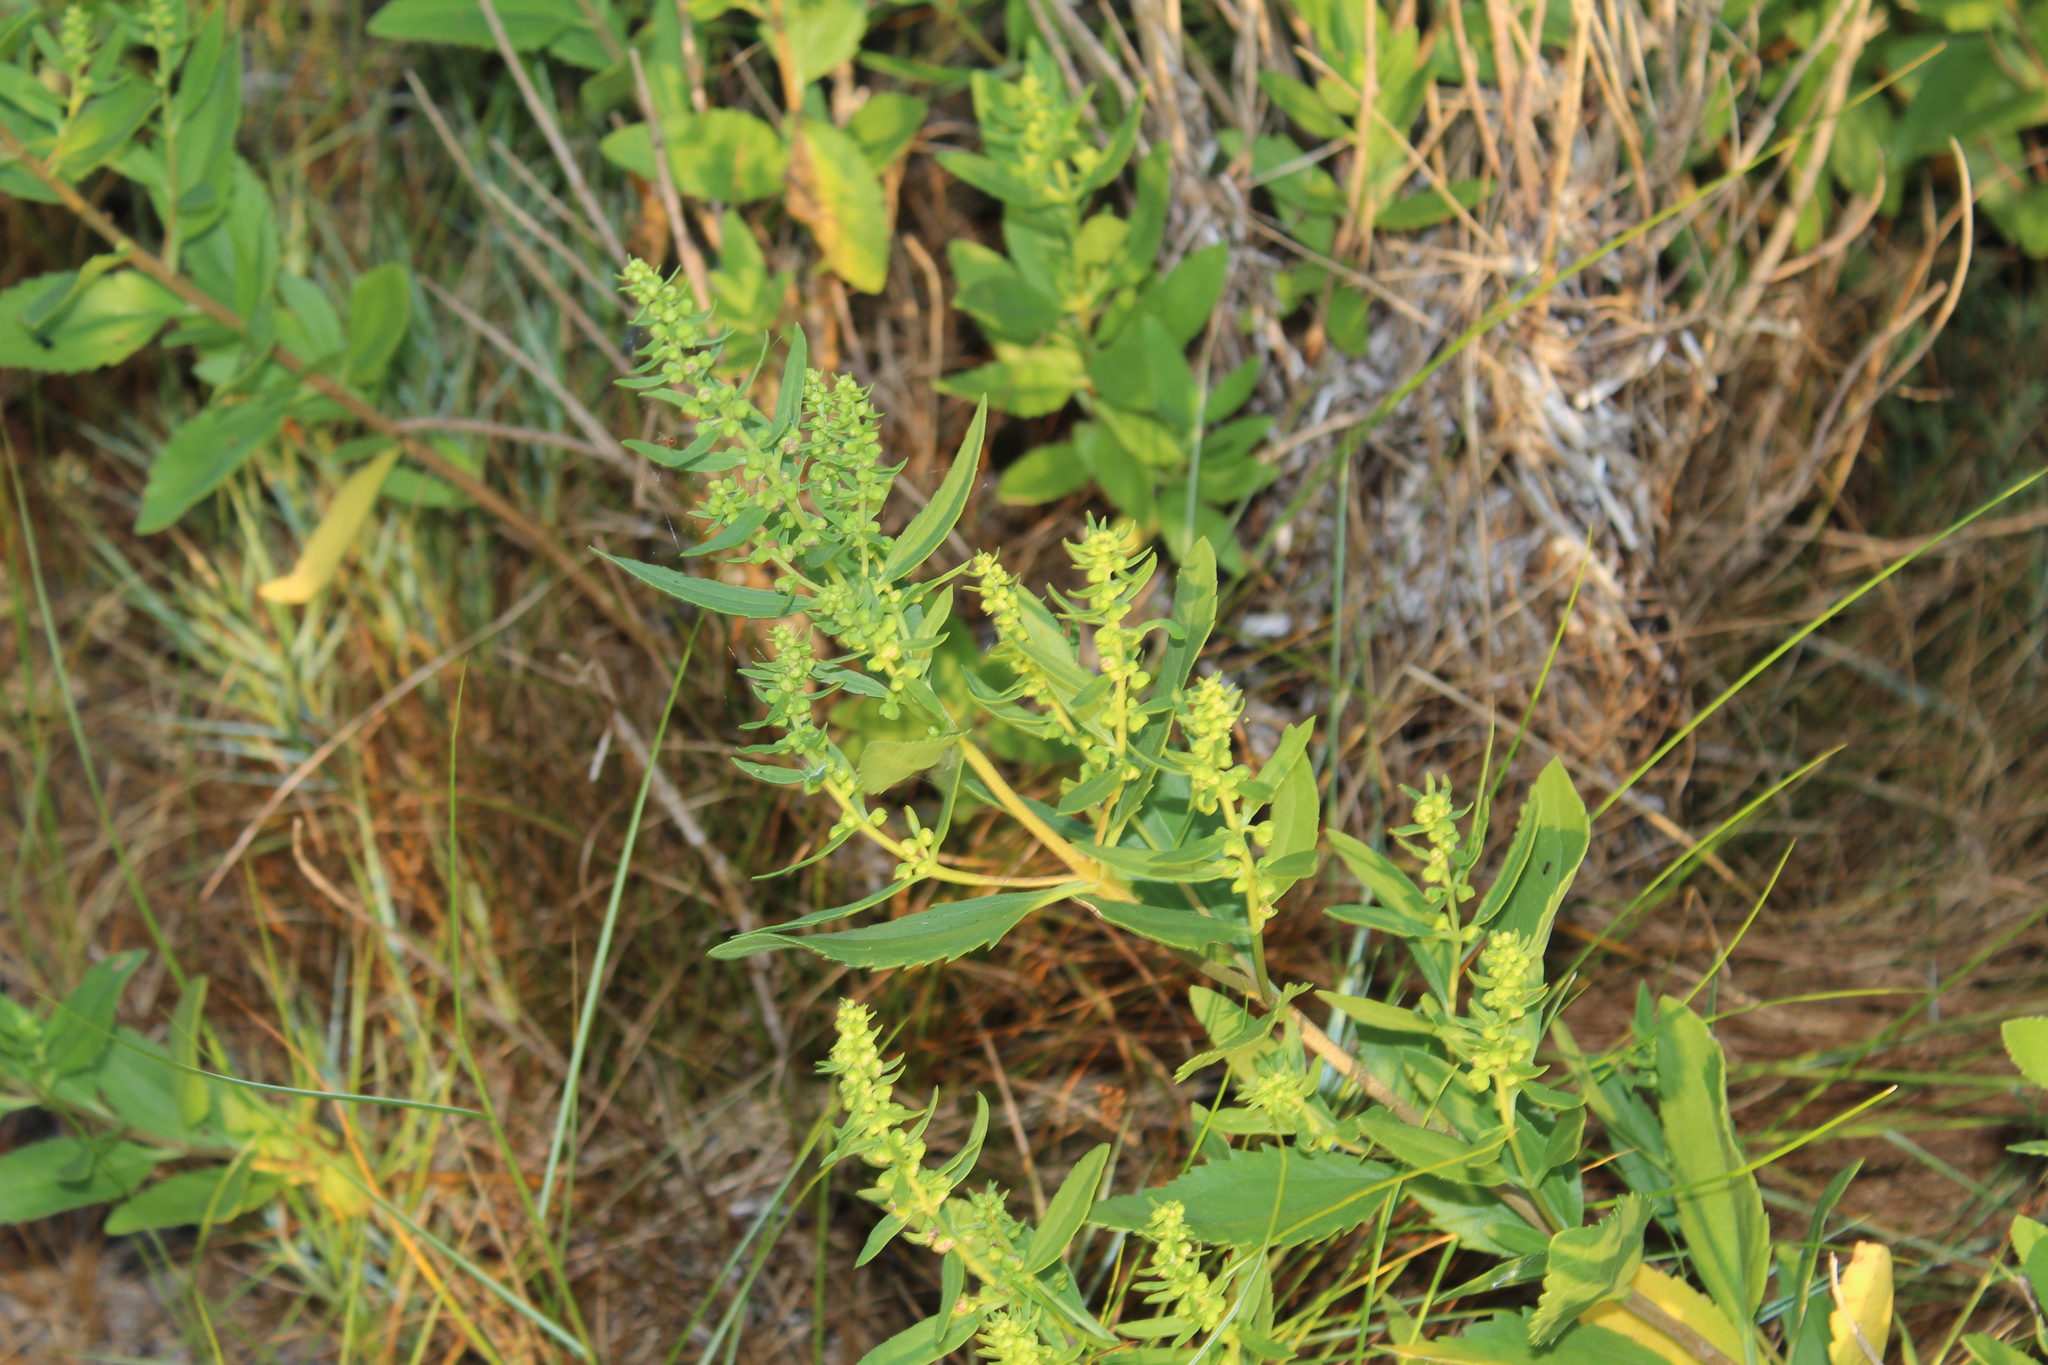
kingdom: Plantae
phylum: Tracheophyta
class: Magnoliopsida
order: Asterales
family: Asteraceae
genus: Iva
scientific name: Iva frutescens
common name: Big-leaved marsh-elder
